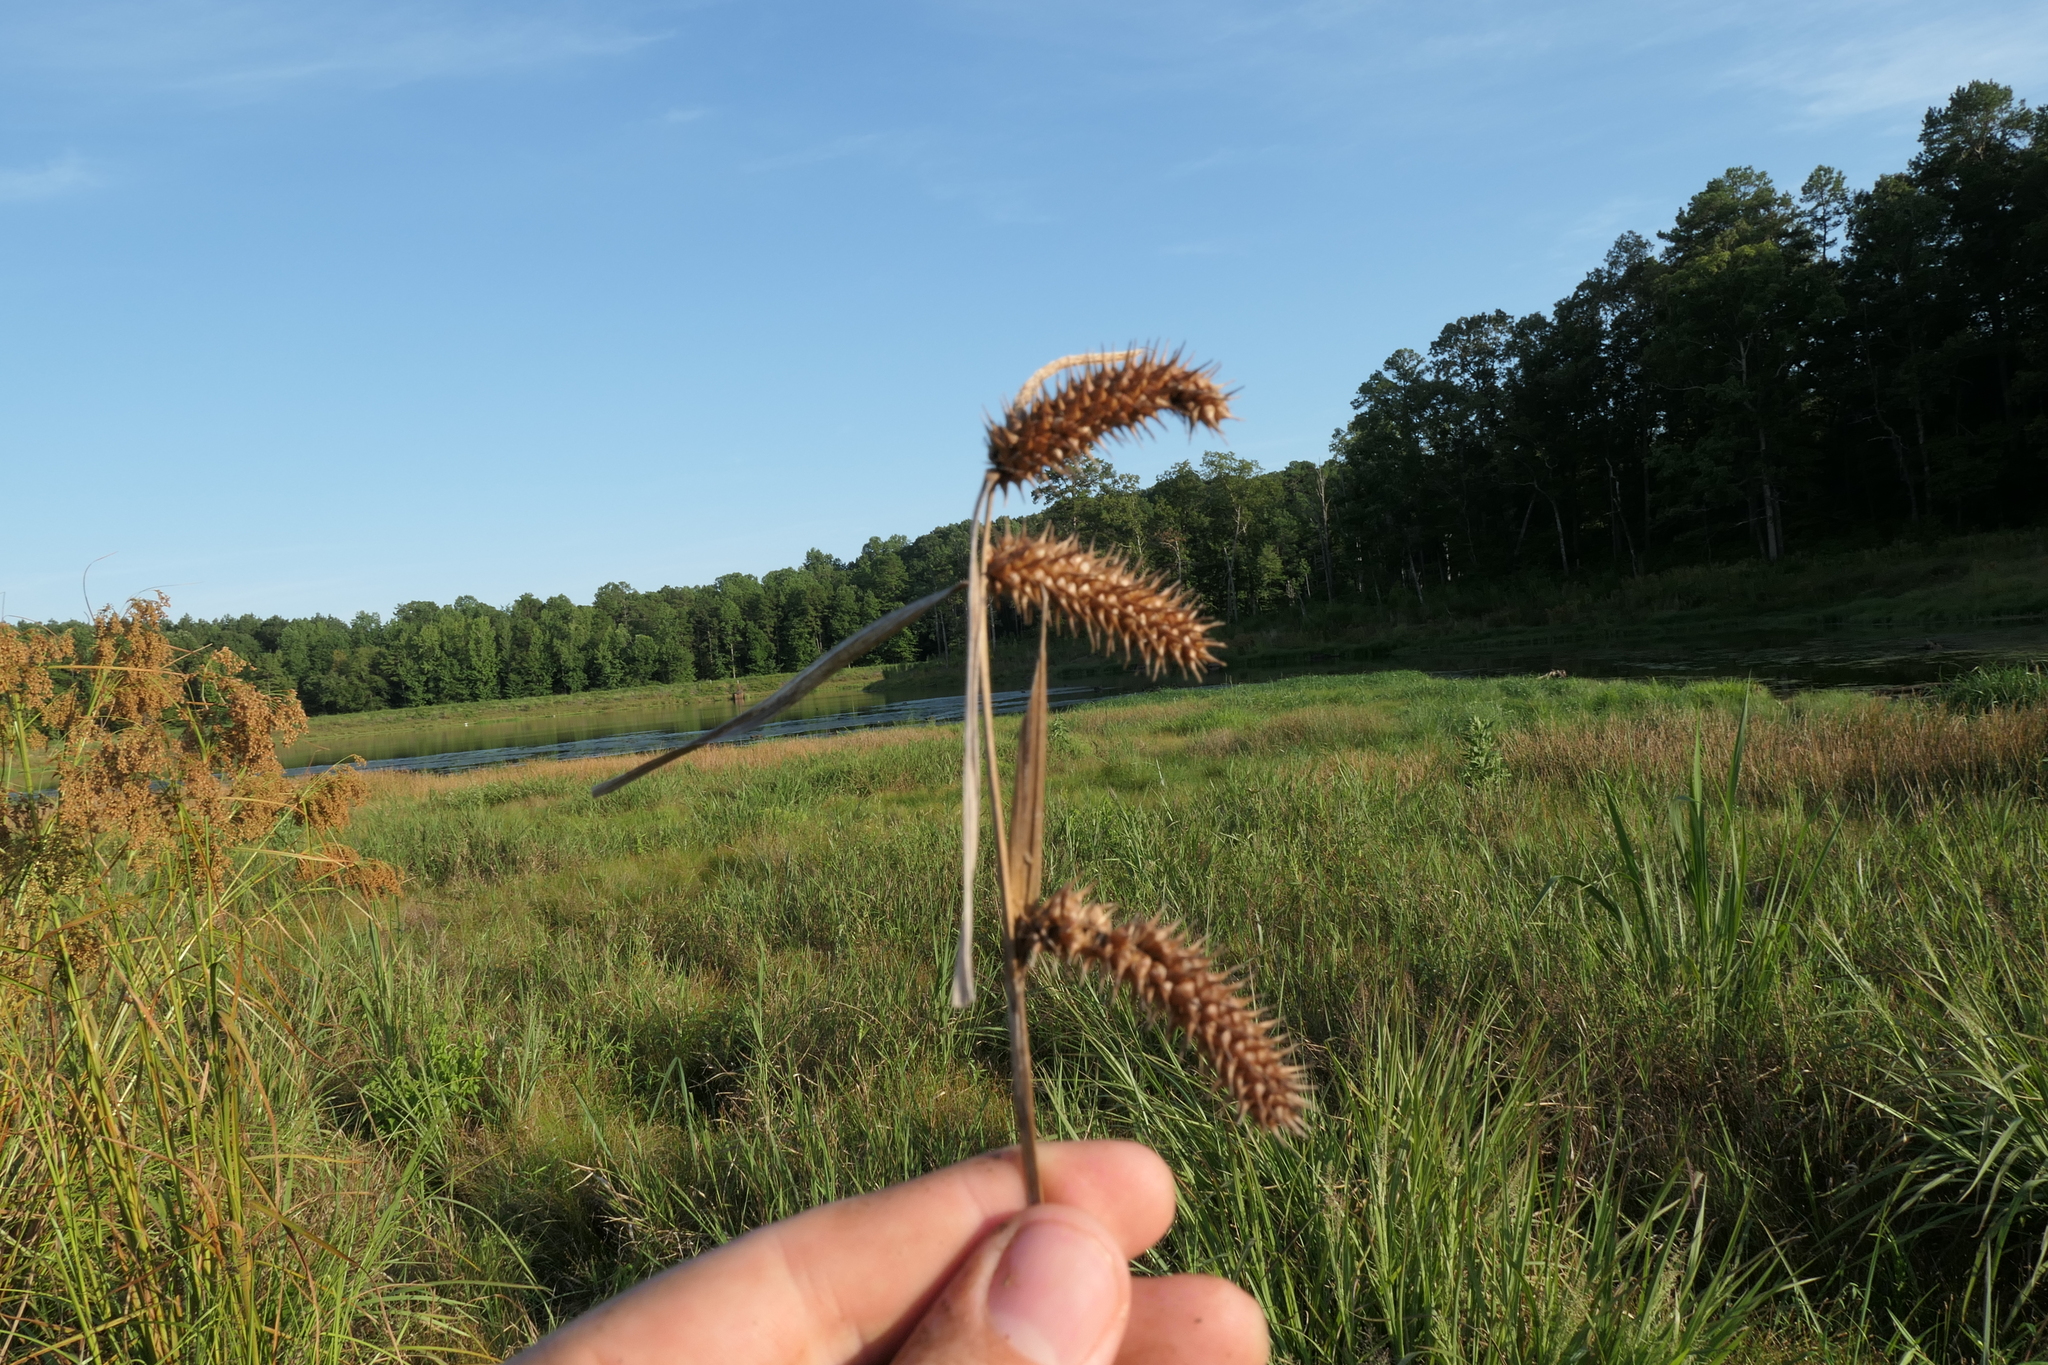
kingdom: Plantae
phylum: Tracheophyta
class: Liliopsida
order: Poales
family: Cyperaceae
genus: Carex
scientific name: Carex lurida
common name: Sallow sedge
